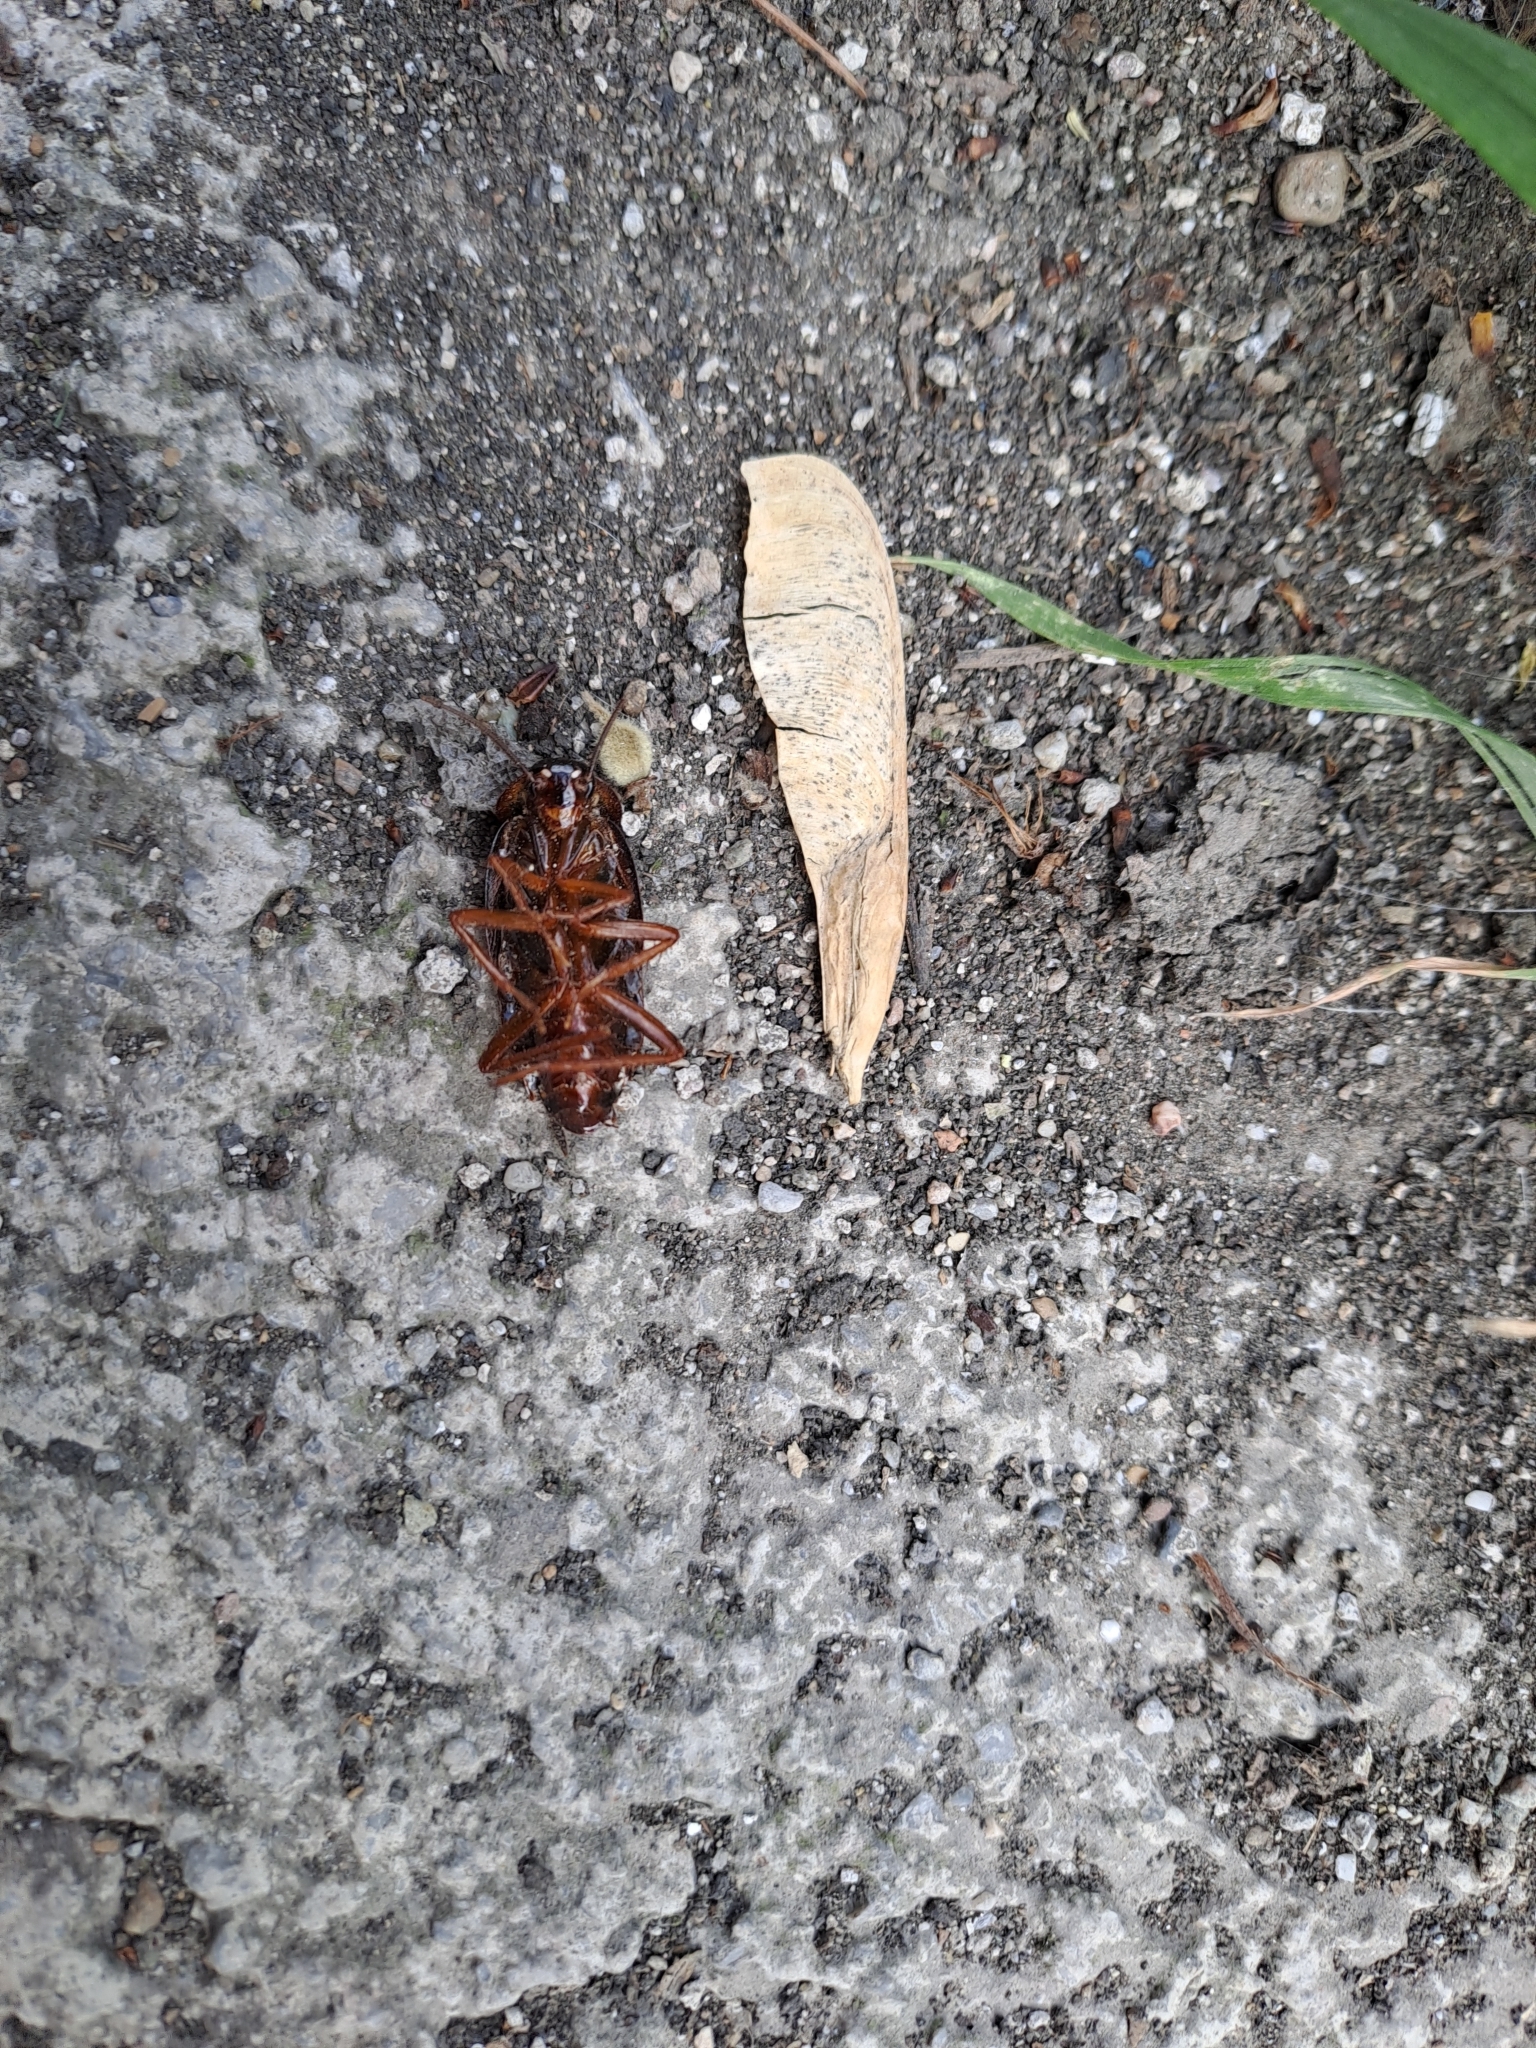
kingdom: Animalia
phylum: Arthropoda
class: Insecta
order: Blattodea
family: Blattidae
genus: Blatta
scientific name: Blatta orientalis
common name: Oriental cockroach
